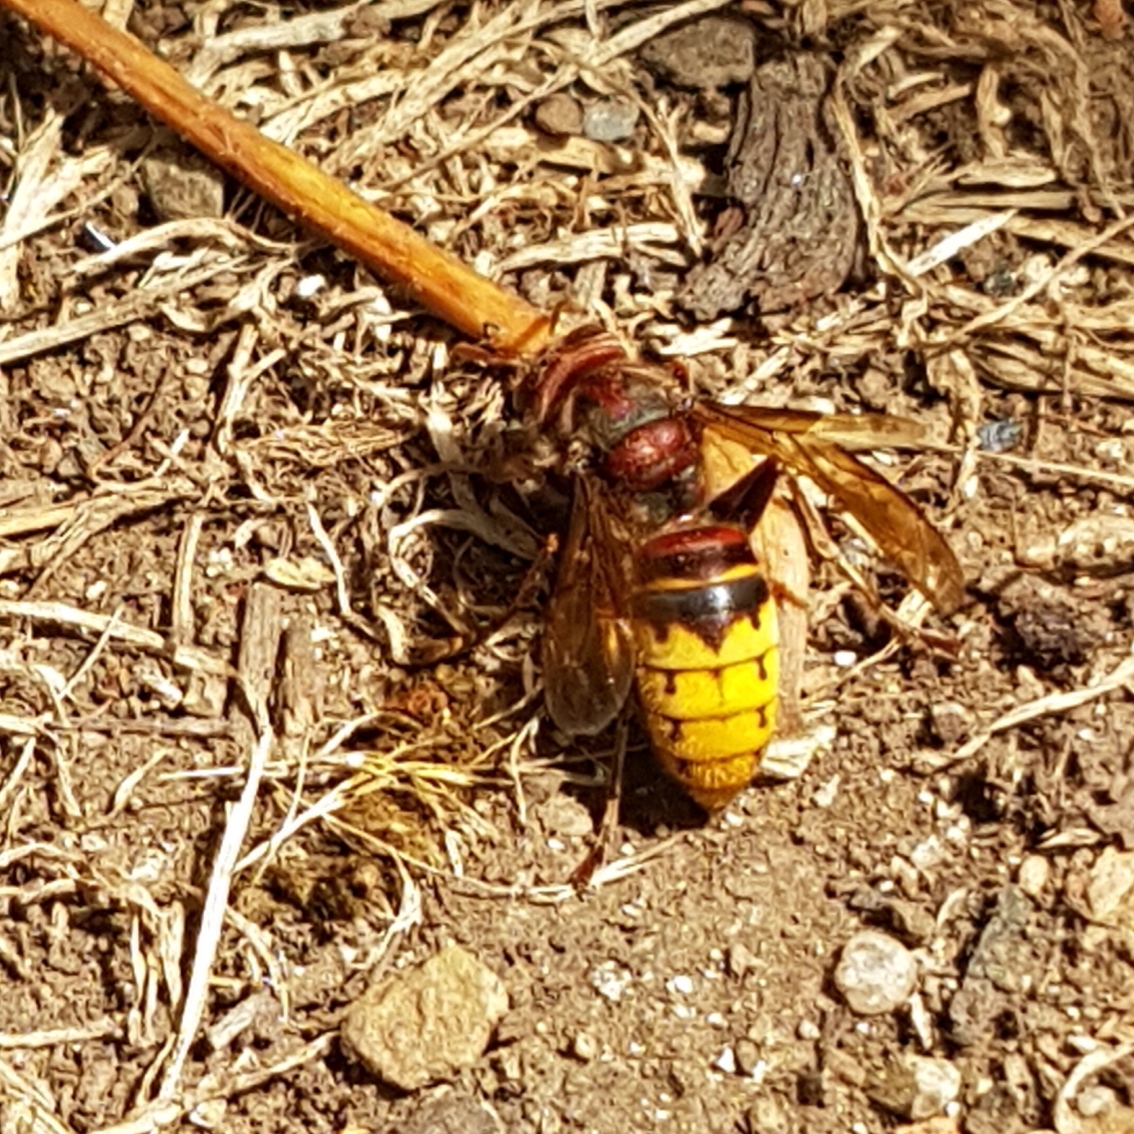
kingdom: Animalia
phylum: Arthropoda
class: Insecta
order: Hymenoptera
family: Vespidae
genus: Vespa
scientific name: Vespa crabro
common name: Hornet
